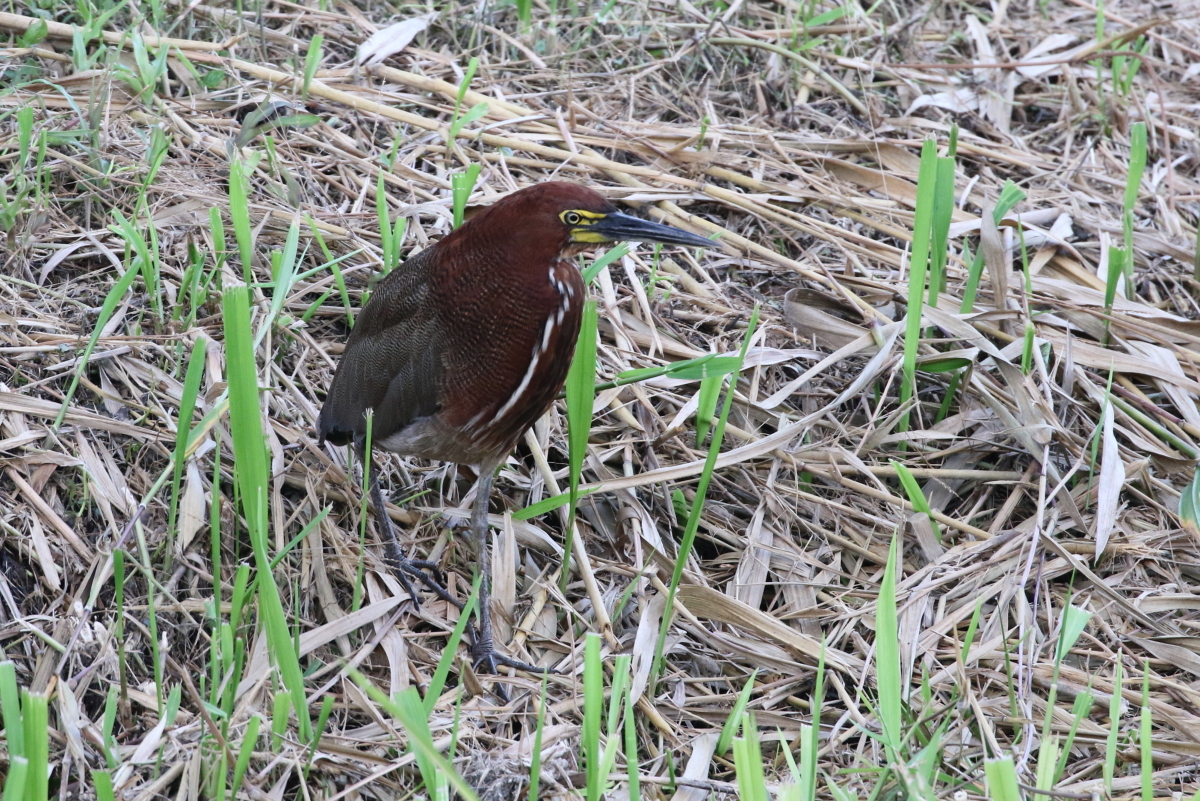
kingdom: Animalia
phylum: Chordata
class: Aves
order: Pelecaniformes
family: Ardeidae
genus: Tigrisoma
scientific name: Tigrisoma lineatum
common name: Rufescent tiger-heron
